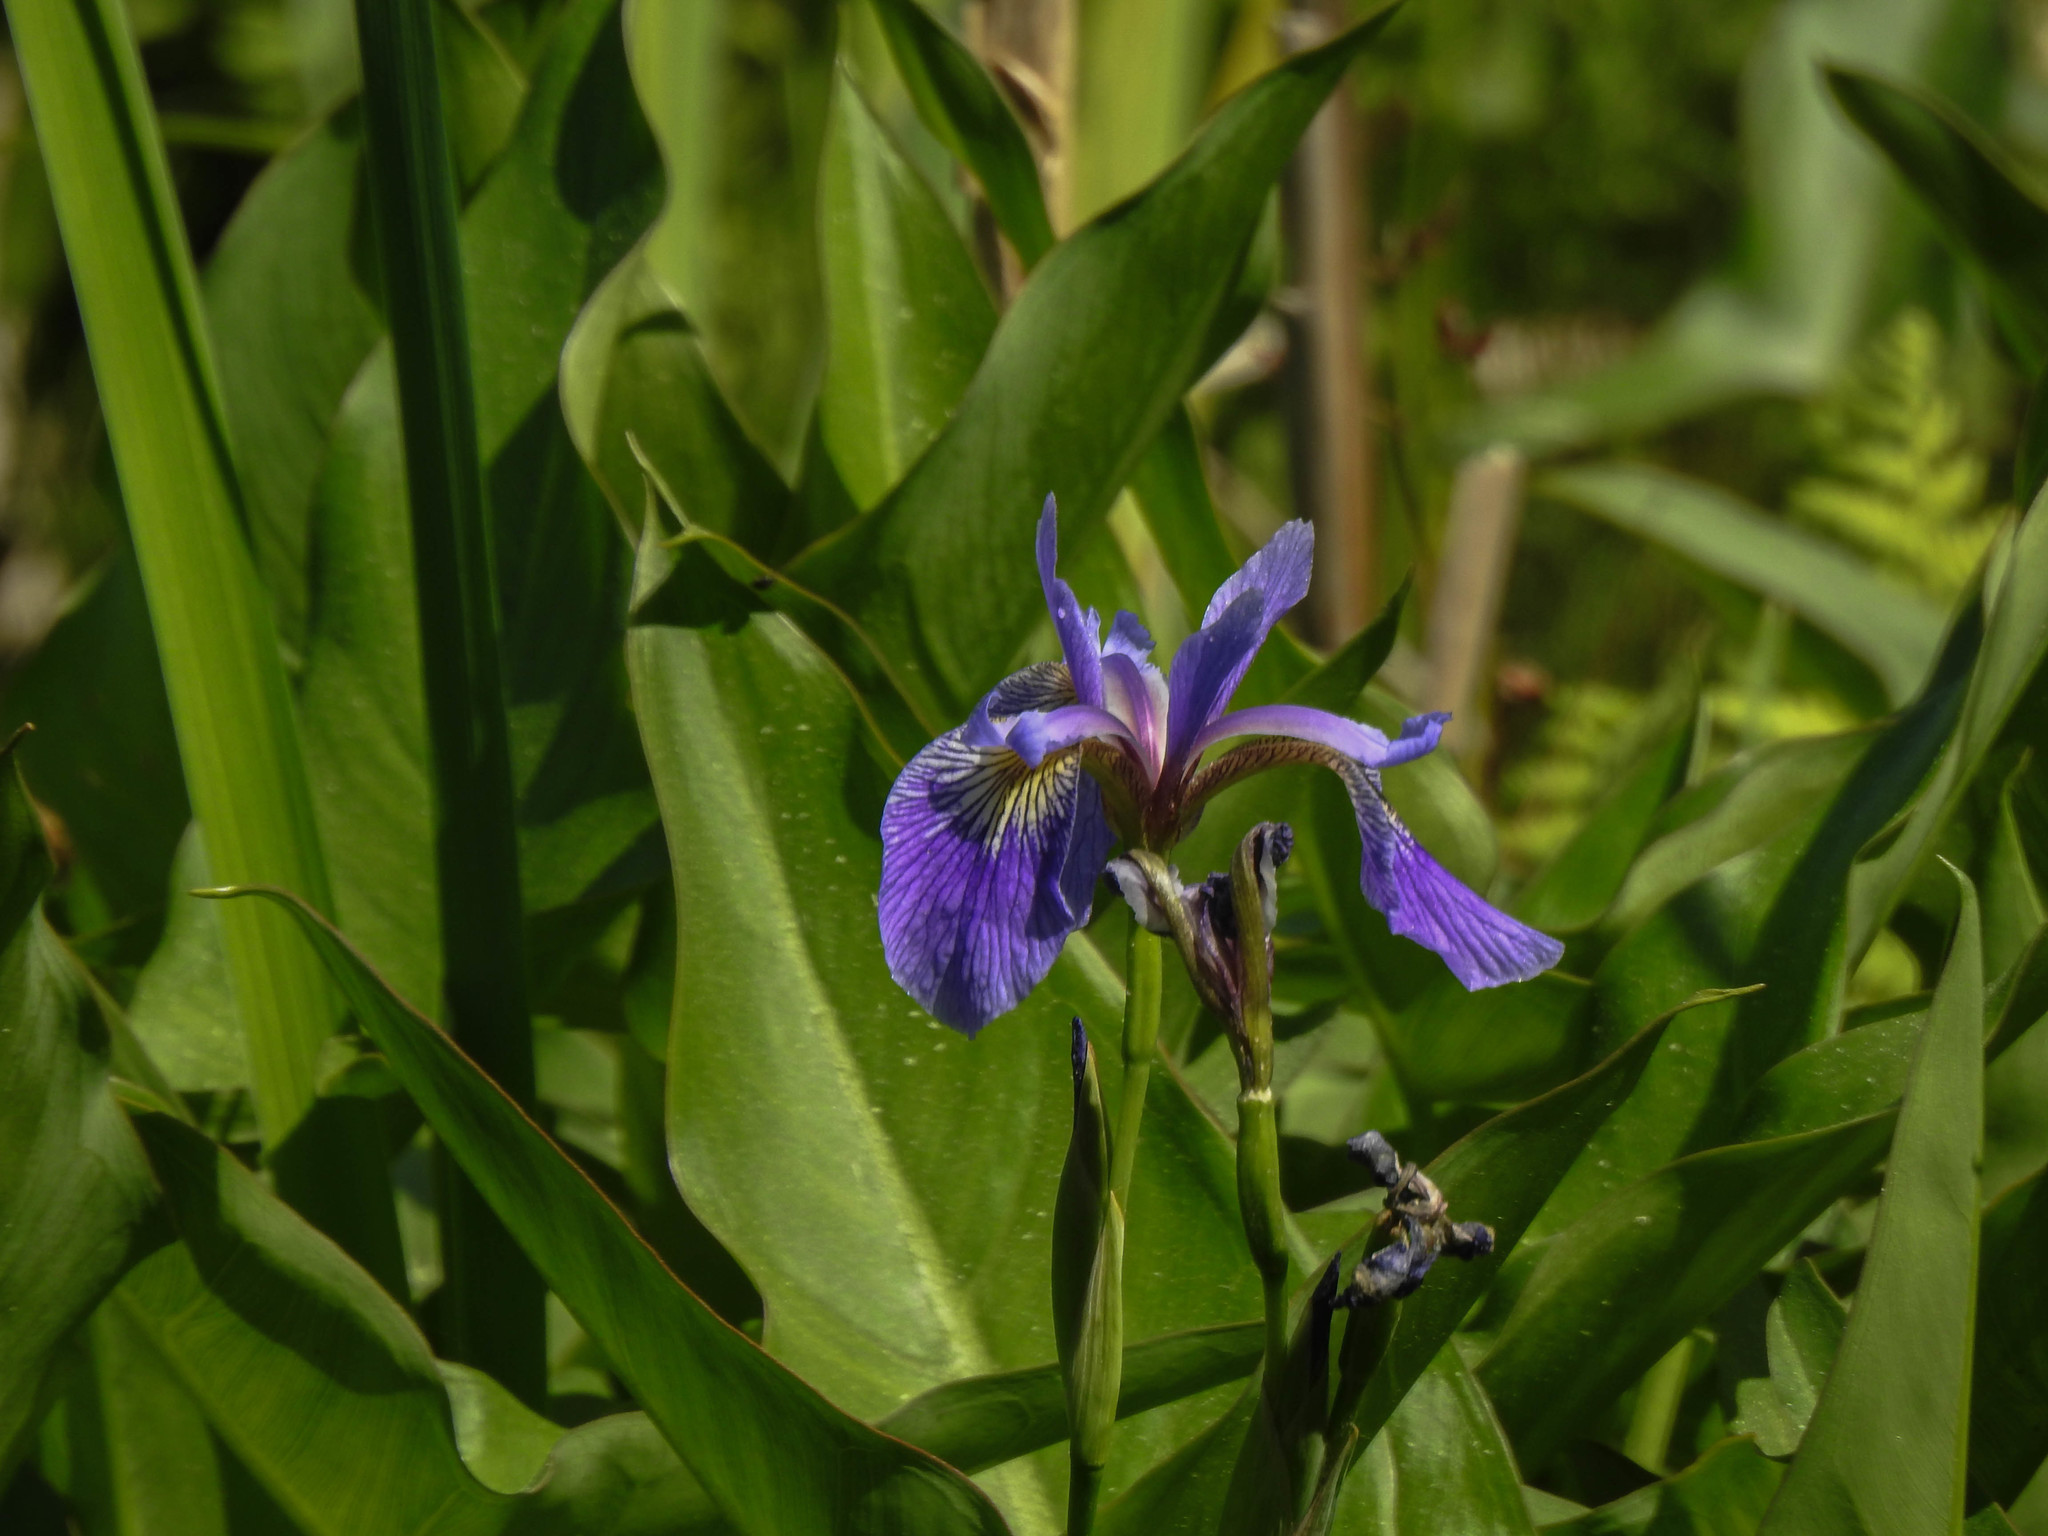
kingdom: Plantae
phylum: Tracheophyta
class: Liliopsida
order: Asparagales
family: Iridaceae
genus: Iris
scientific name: Iris versicolor
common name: Purple iris
